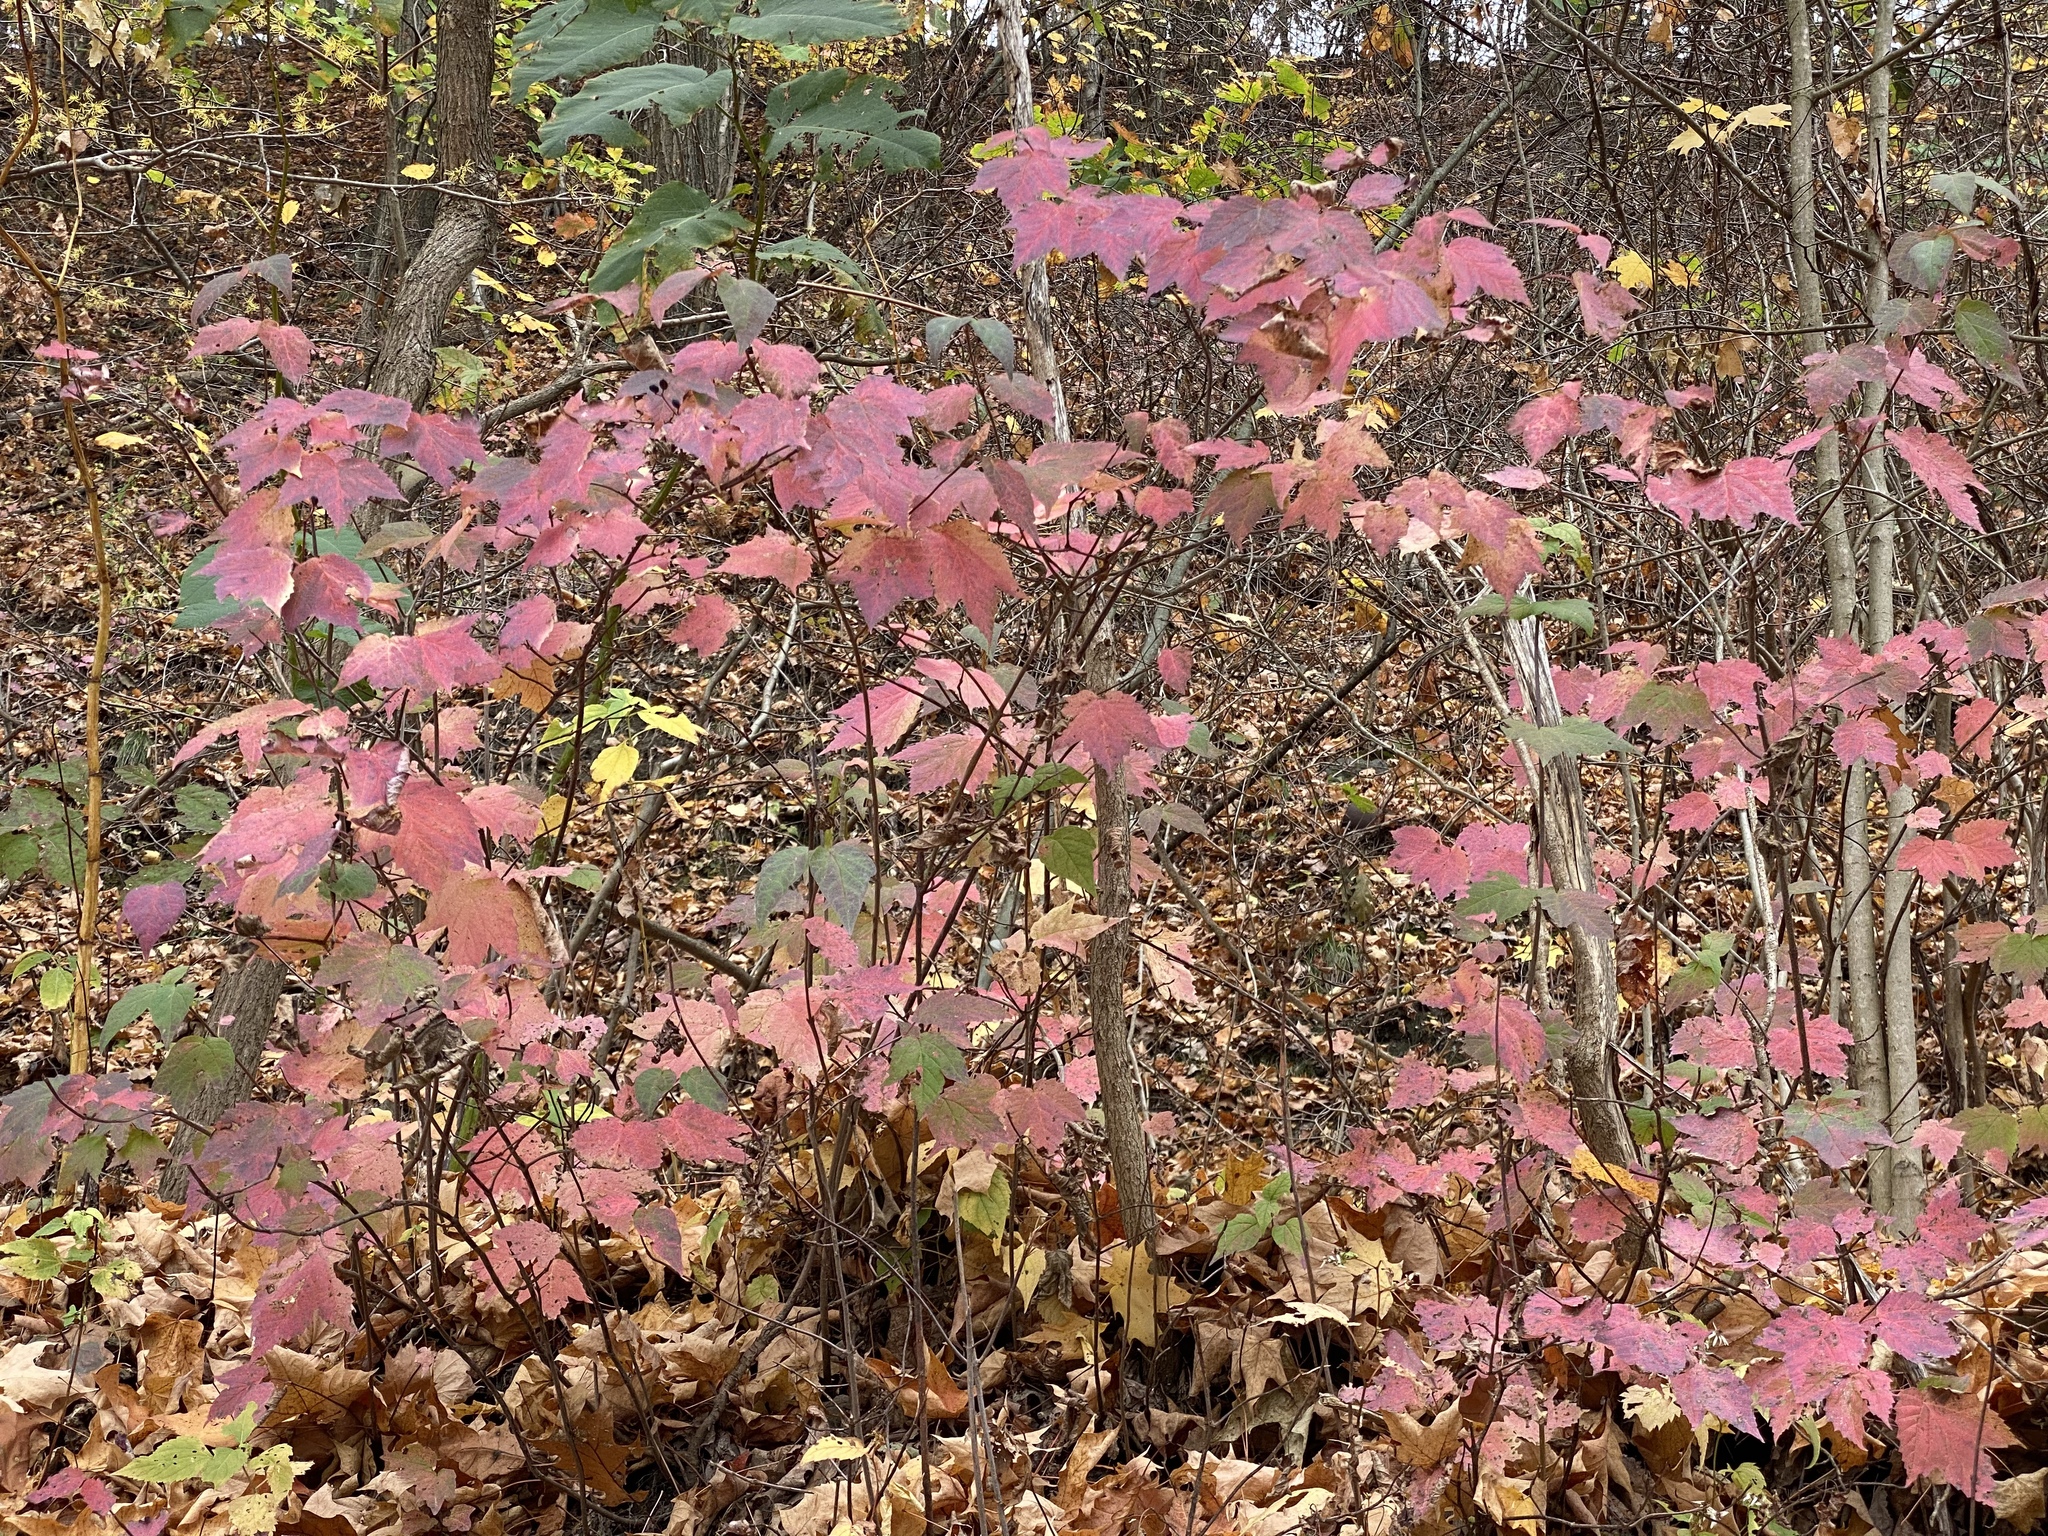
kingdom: Plantae
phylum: Tracheophyta
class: Magnoliopsida
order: Dipsacales
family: Viburnaceae
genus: Viburnum
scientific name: Viburnum acerifolium
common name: Dockmackie
